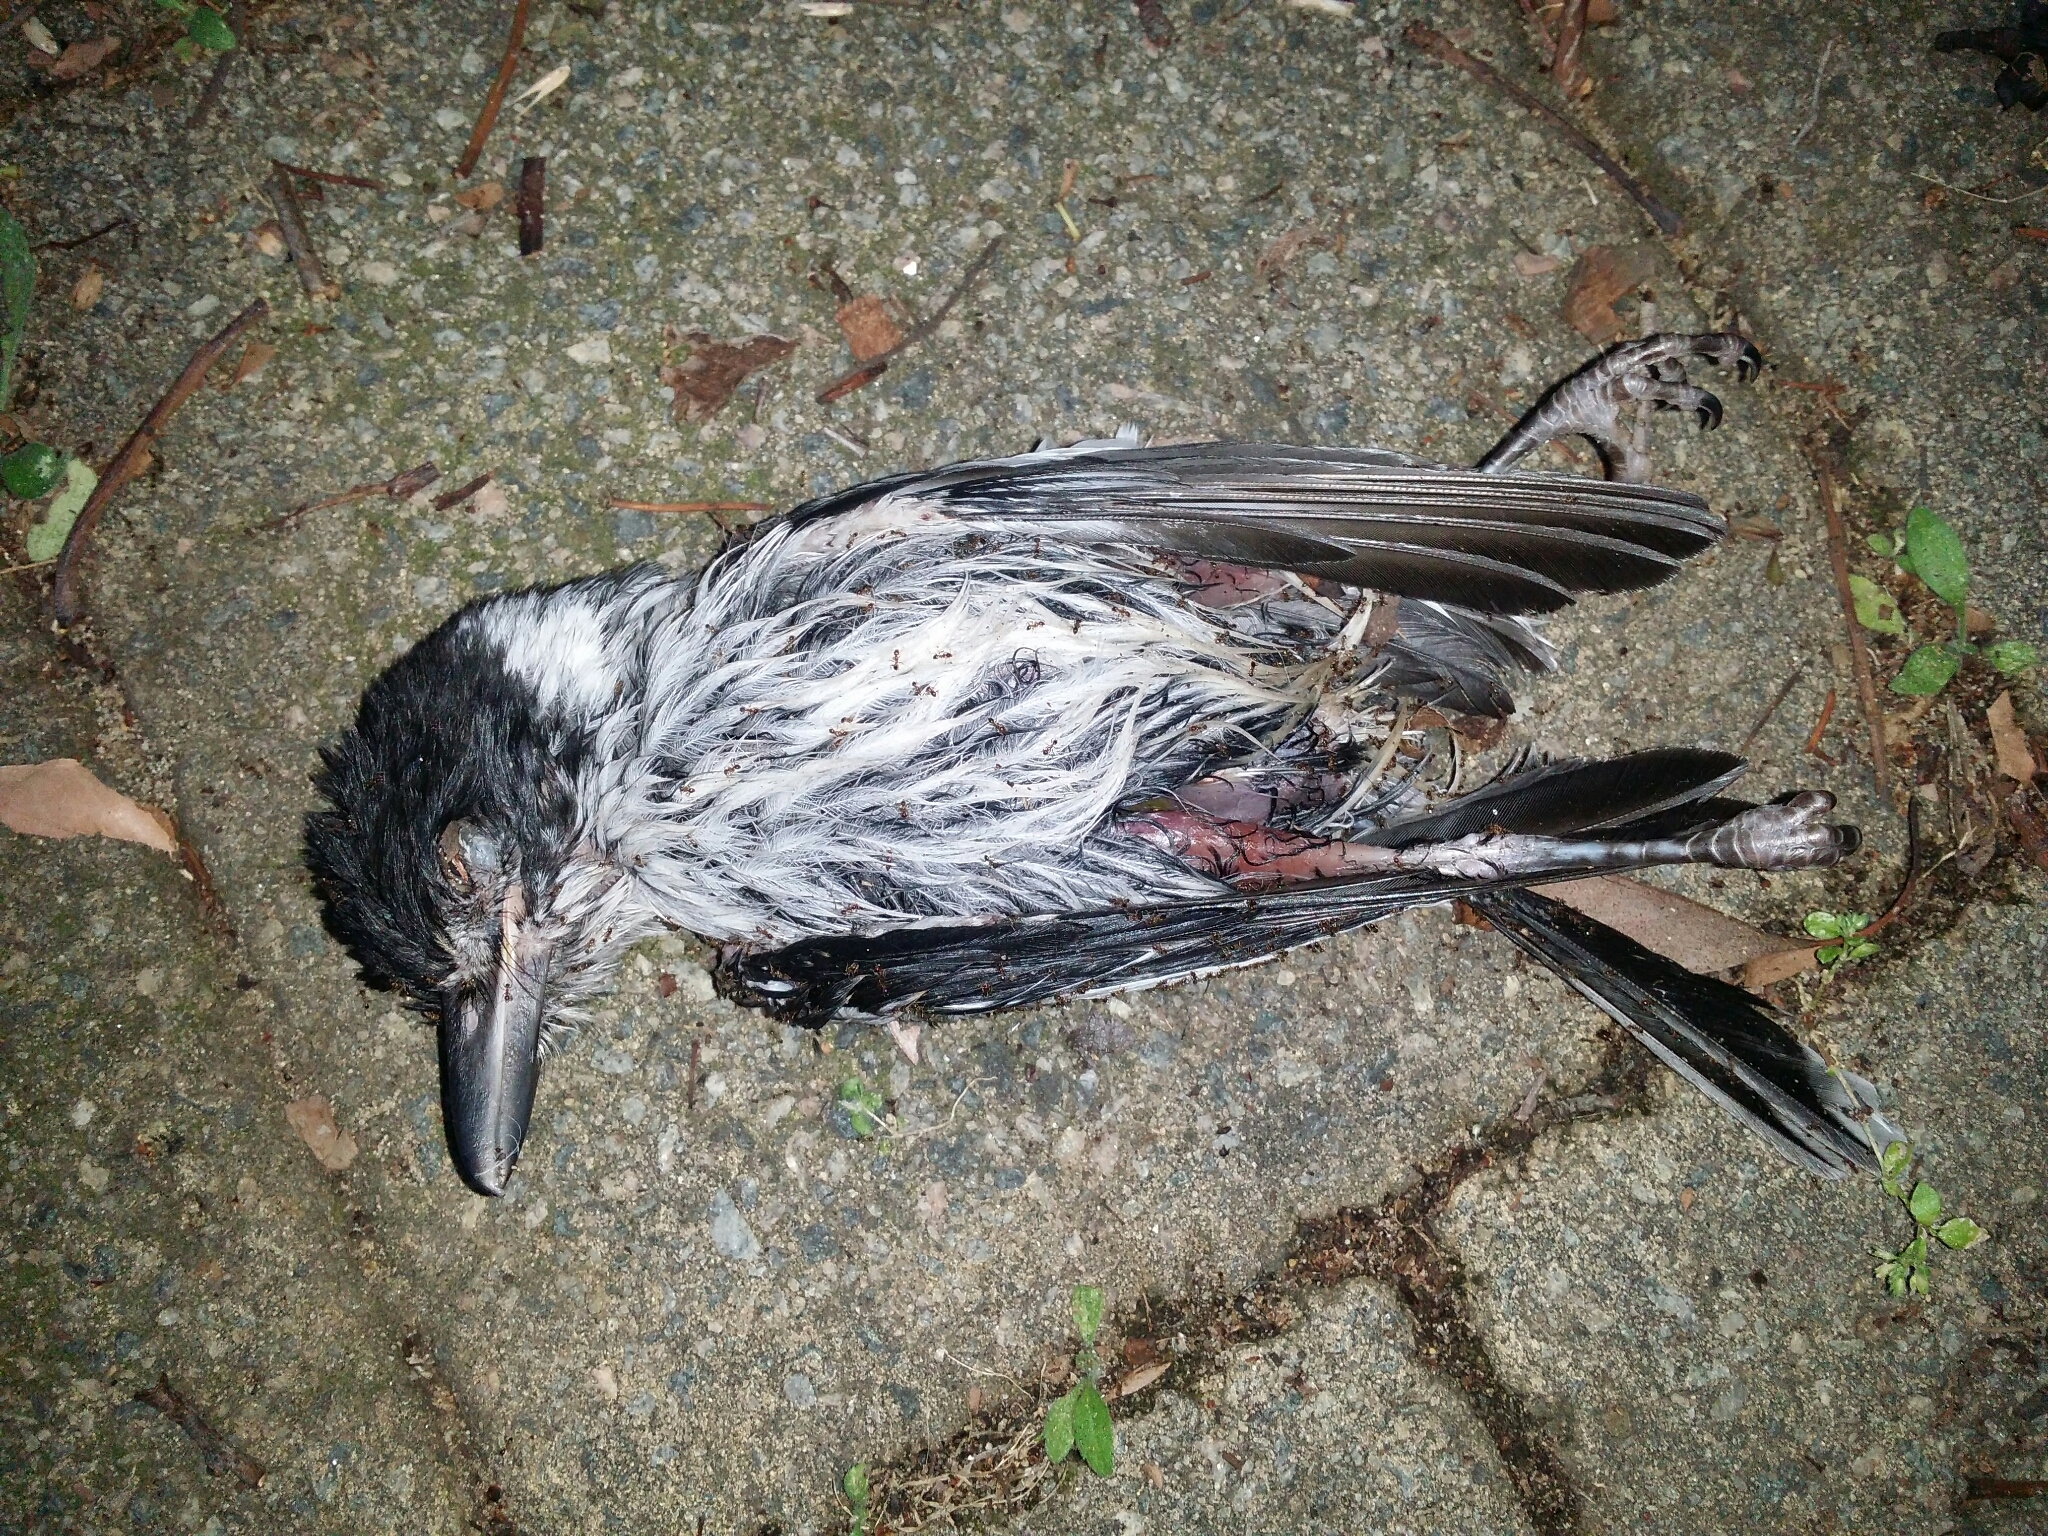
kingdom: Animalia
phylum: Chordata
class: Aves
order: Passeriformes
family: Cracticidae
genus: Cracticus
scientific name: Cracticus torquatus
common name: Grey butcherbird
